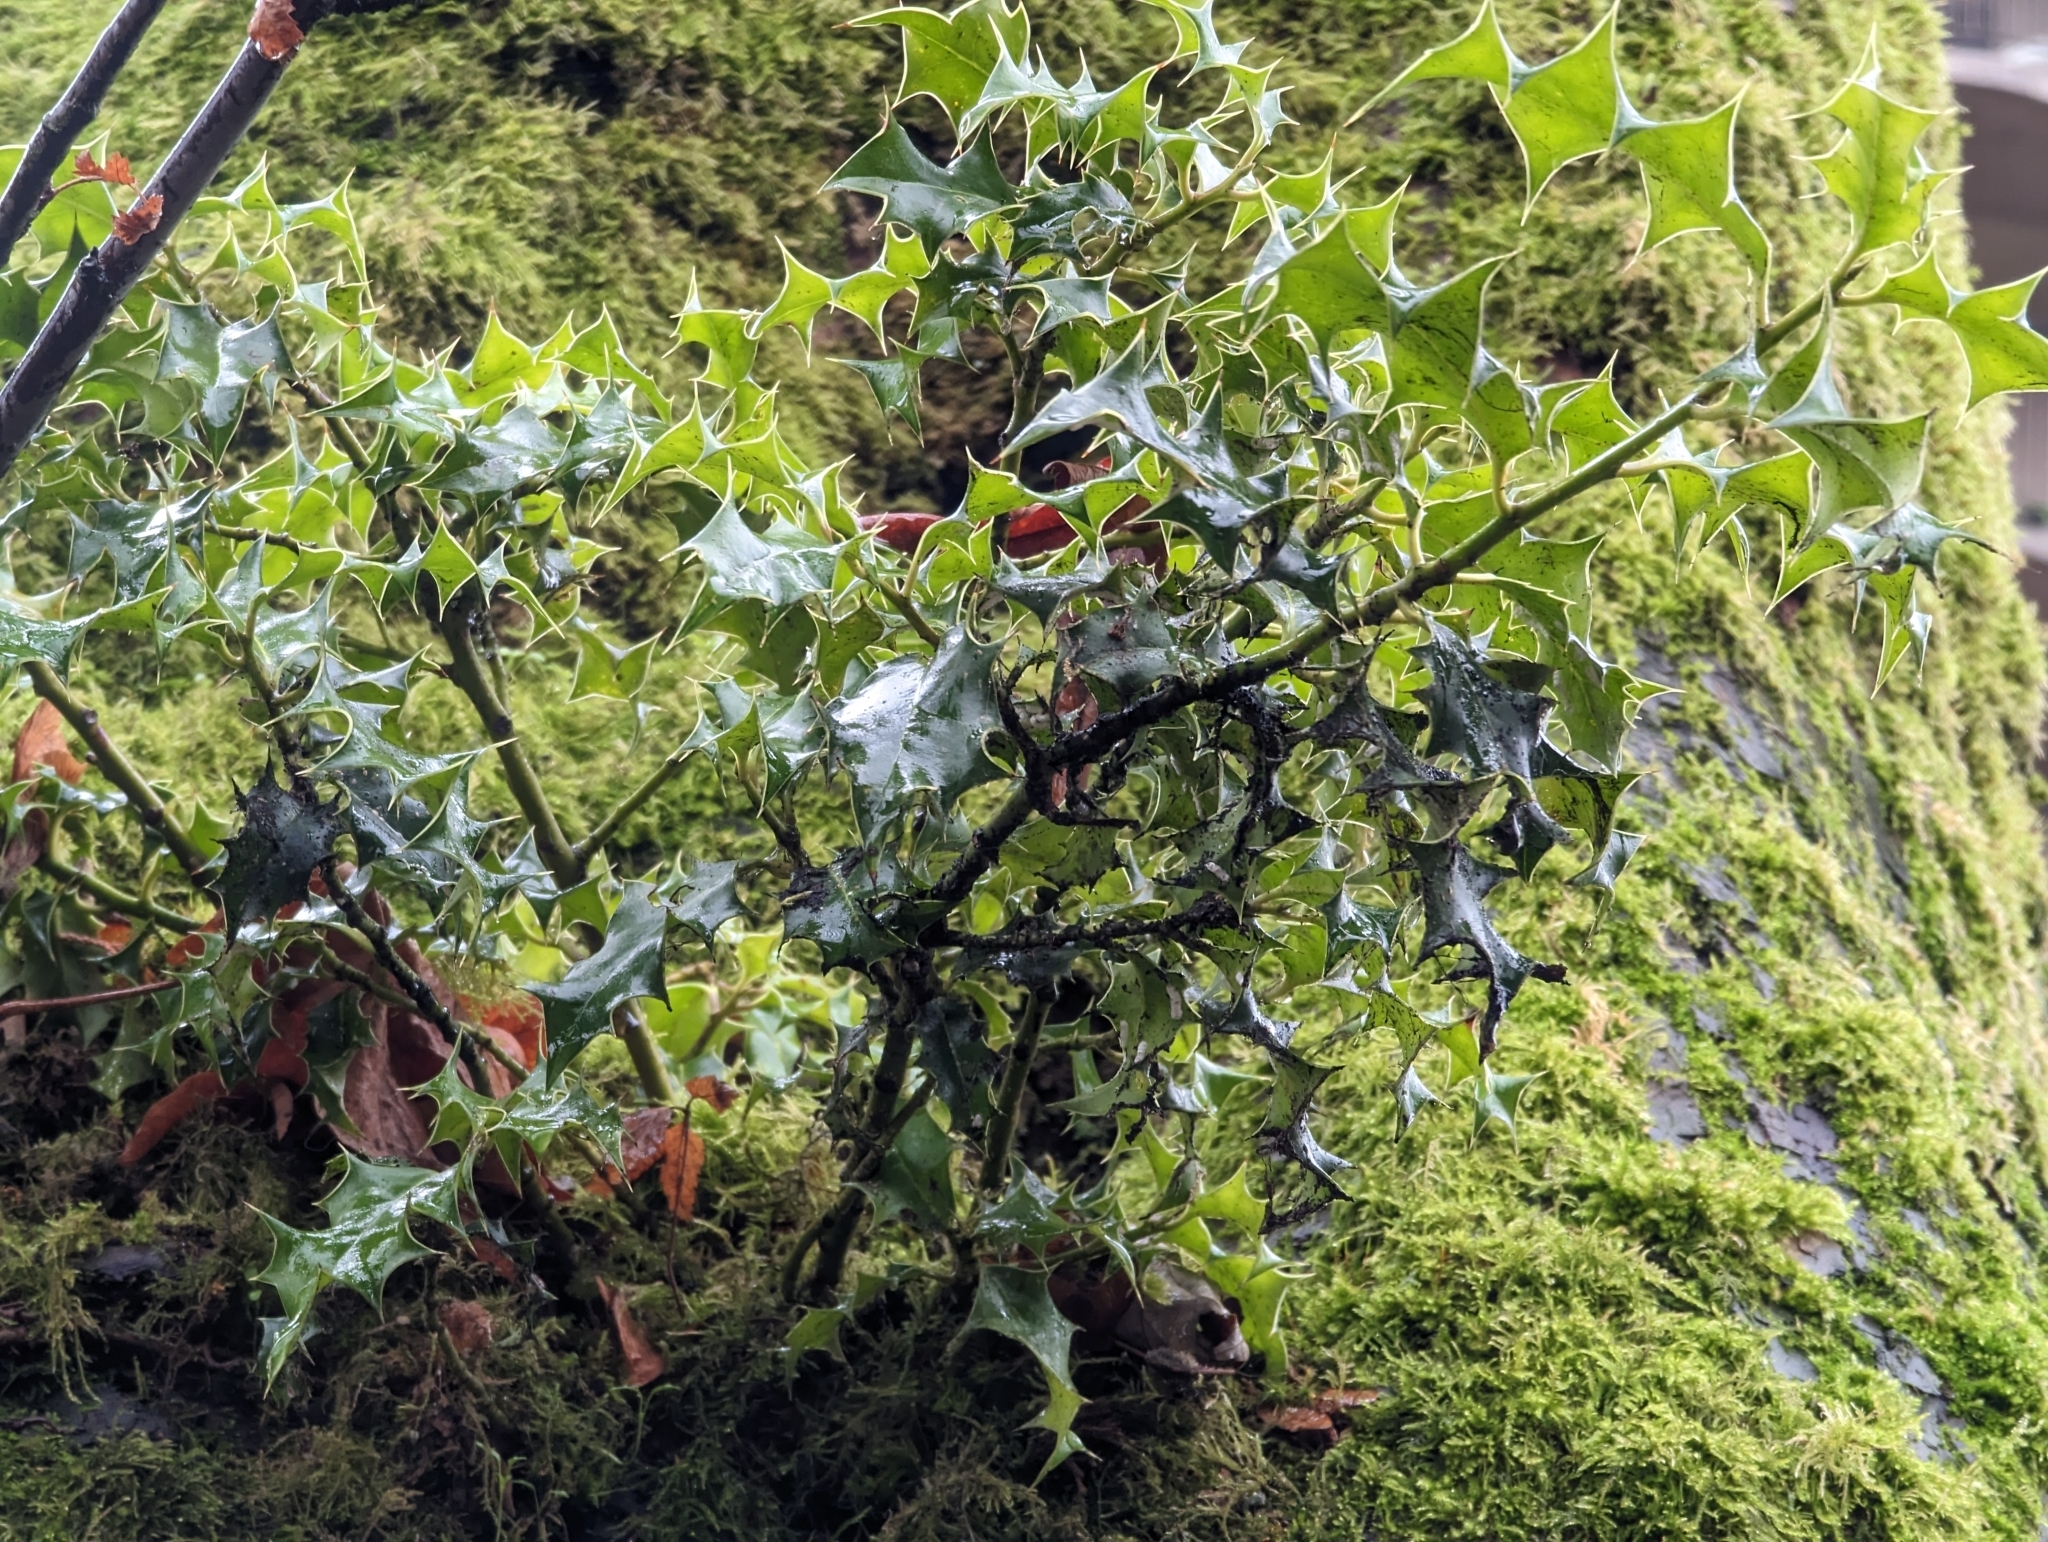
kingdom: Plantae
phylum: Tracheophyta
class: Magnoliopsida
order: Aquifoliales
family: Aquifoliaceae
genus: Ilex
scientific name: Ilex aquifolium
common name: English holly
